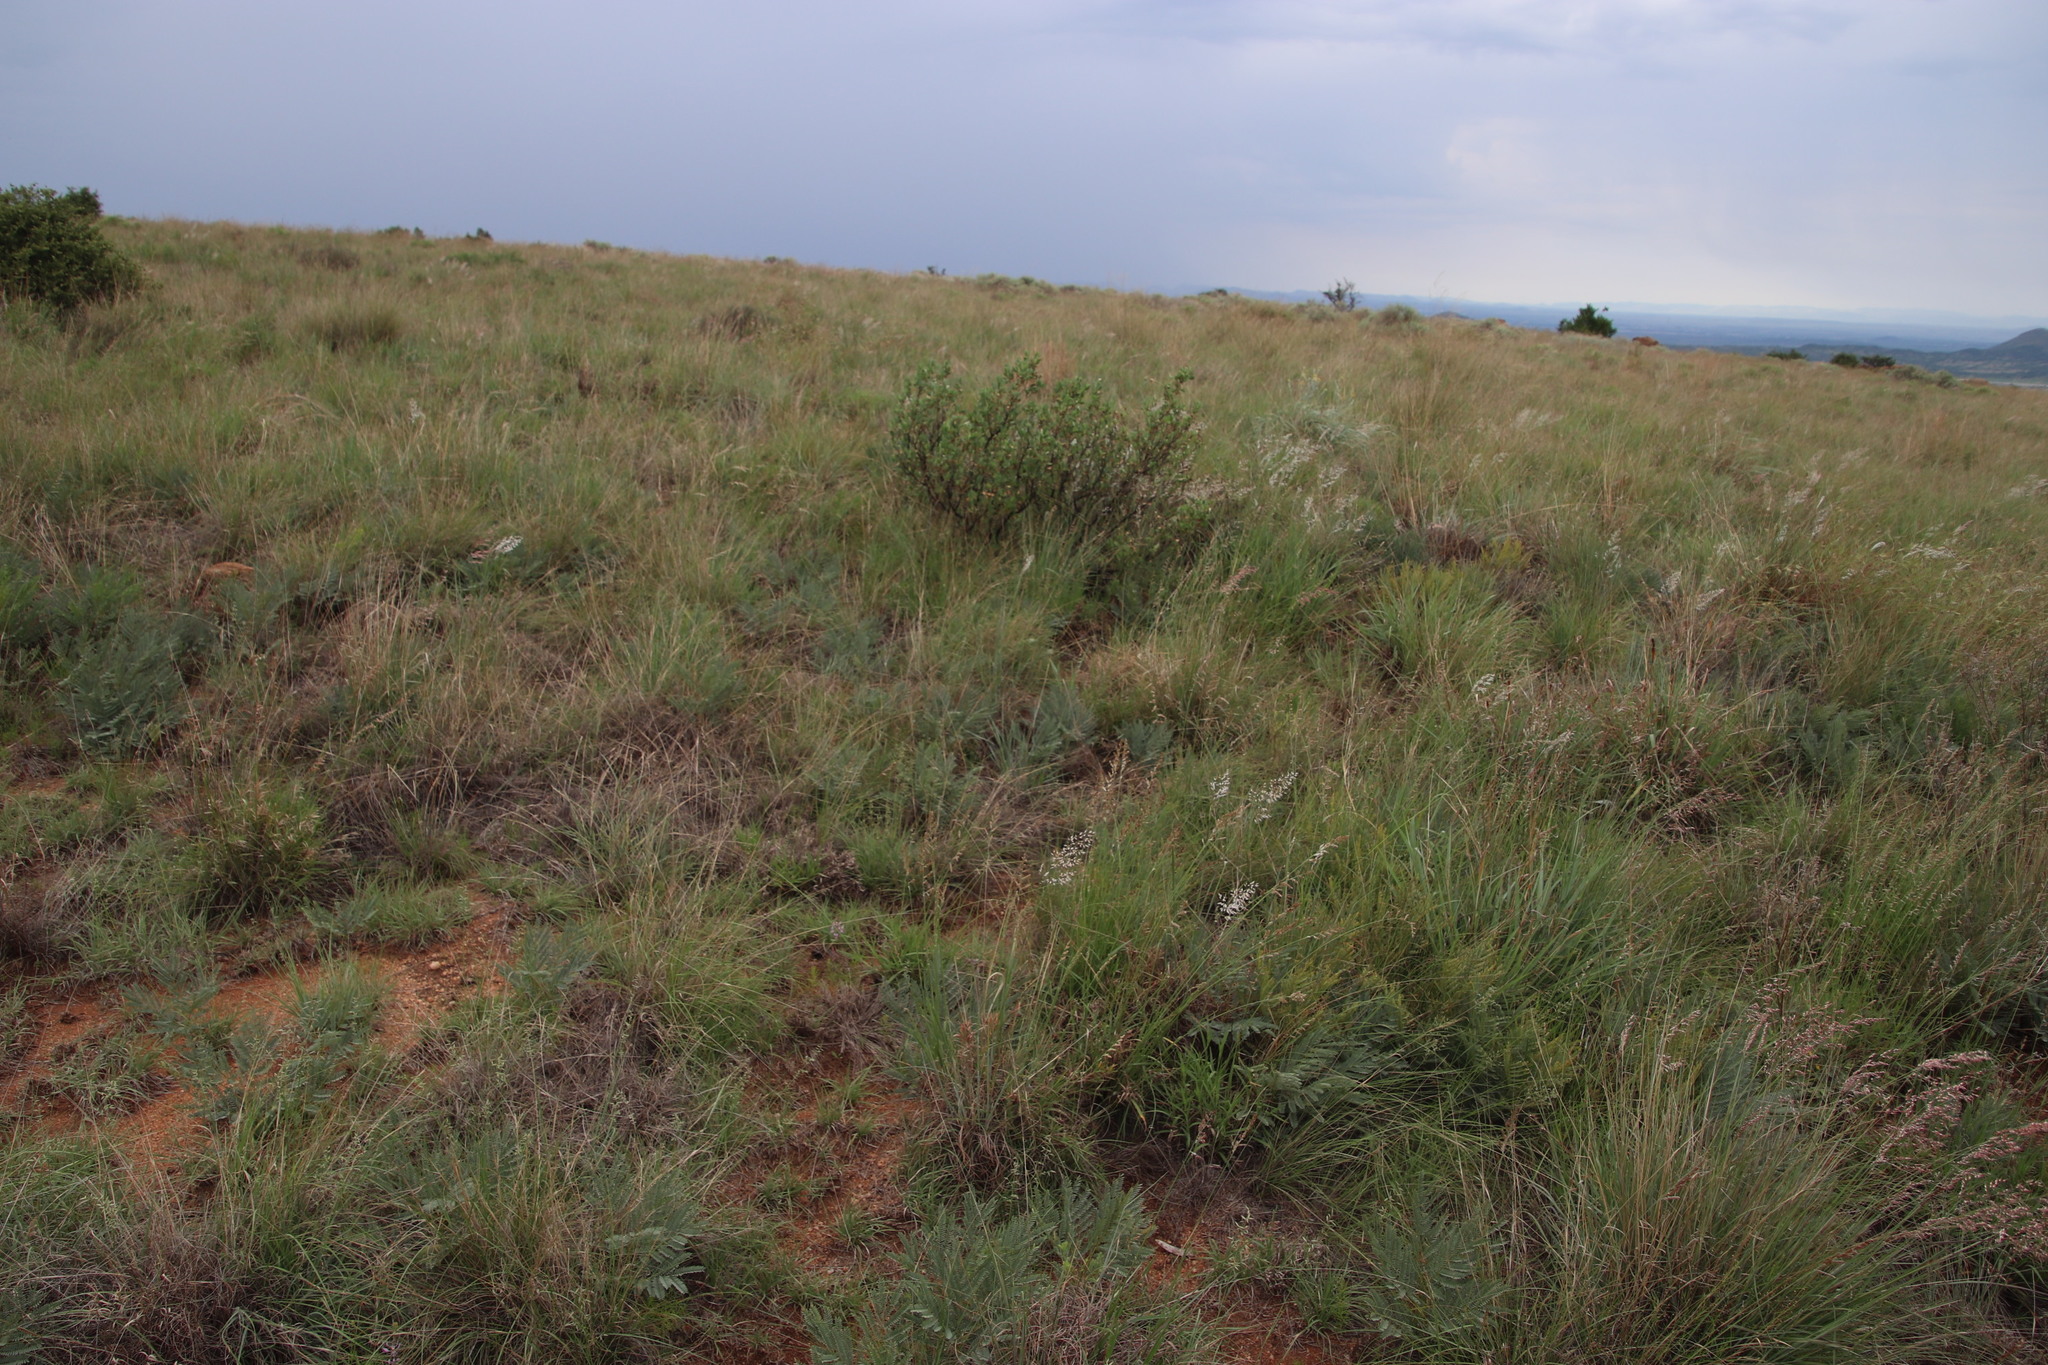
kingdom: Plantae
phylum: Tracheophyta
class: Magnoliopsida
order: Fabales
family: Fabaceae
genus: Elephantorrhiza
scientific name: Elephantorrhiza elephantina
